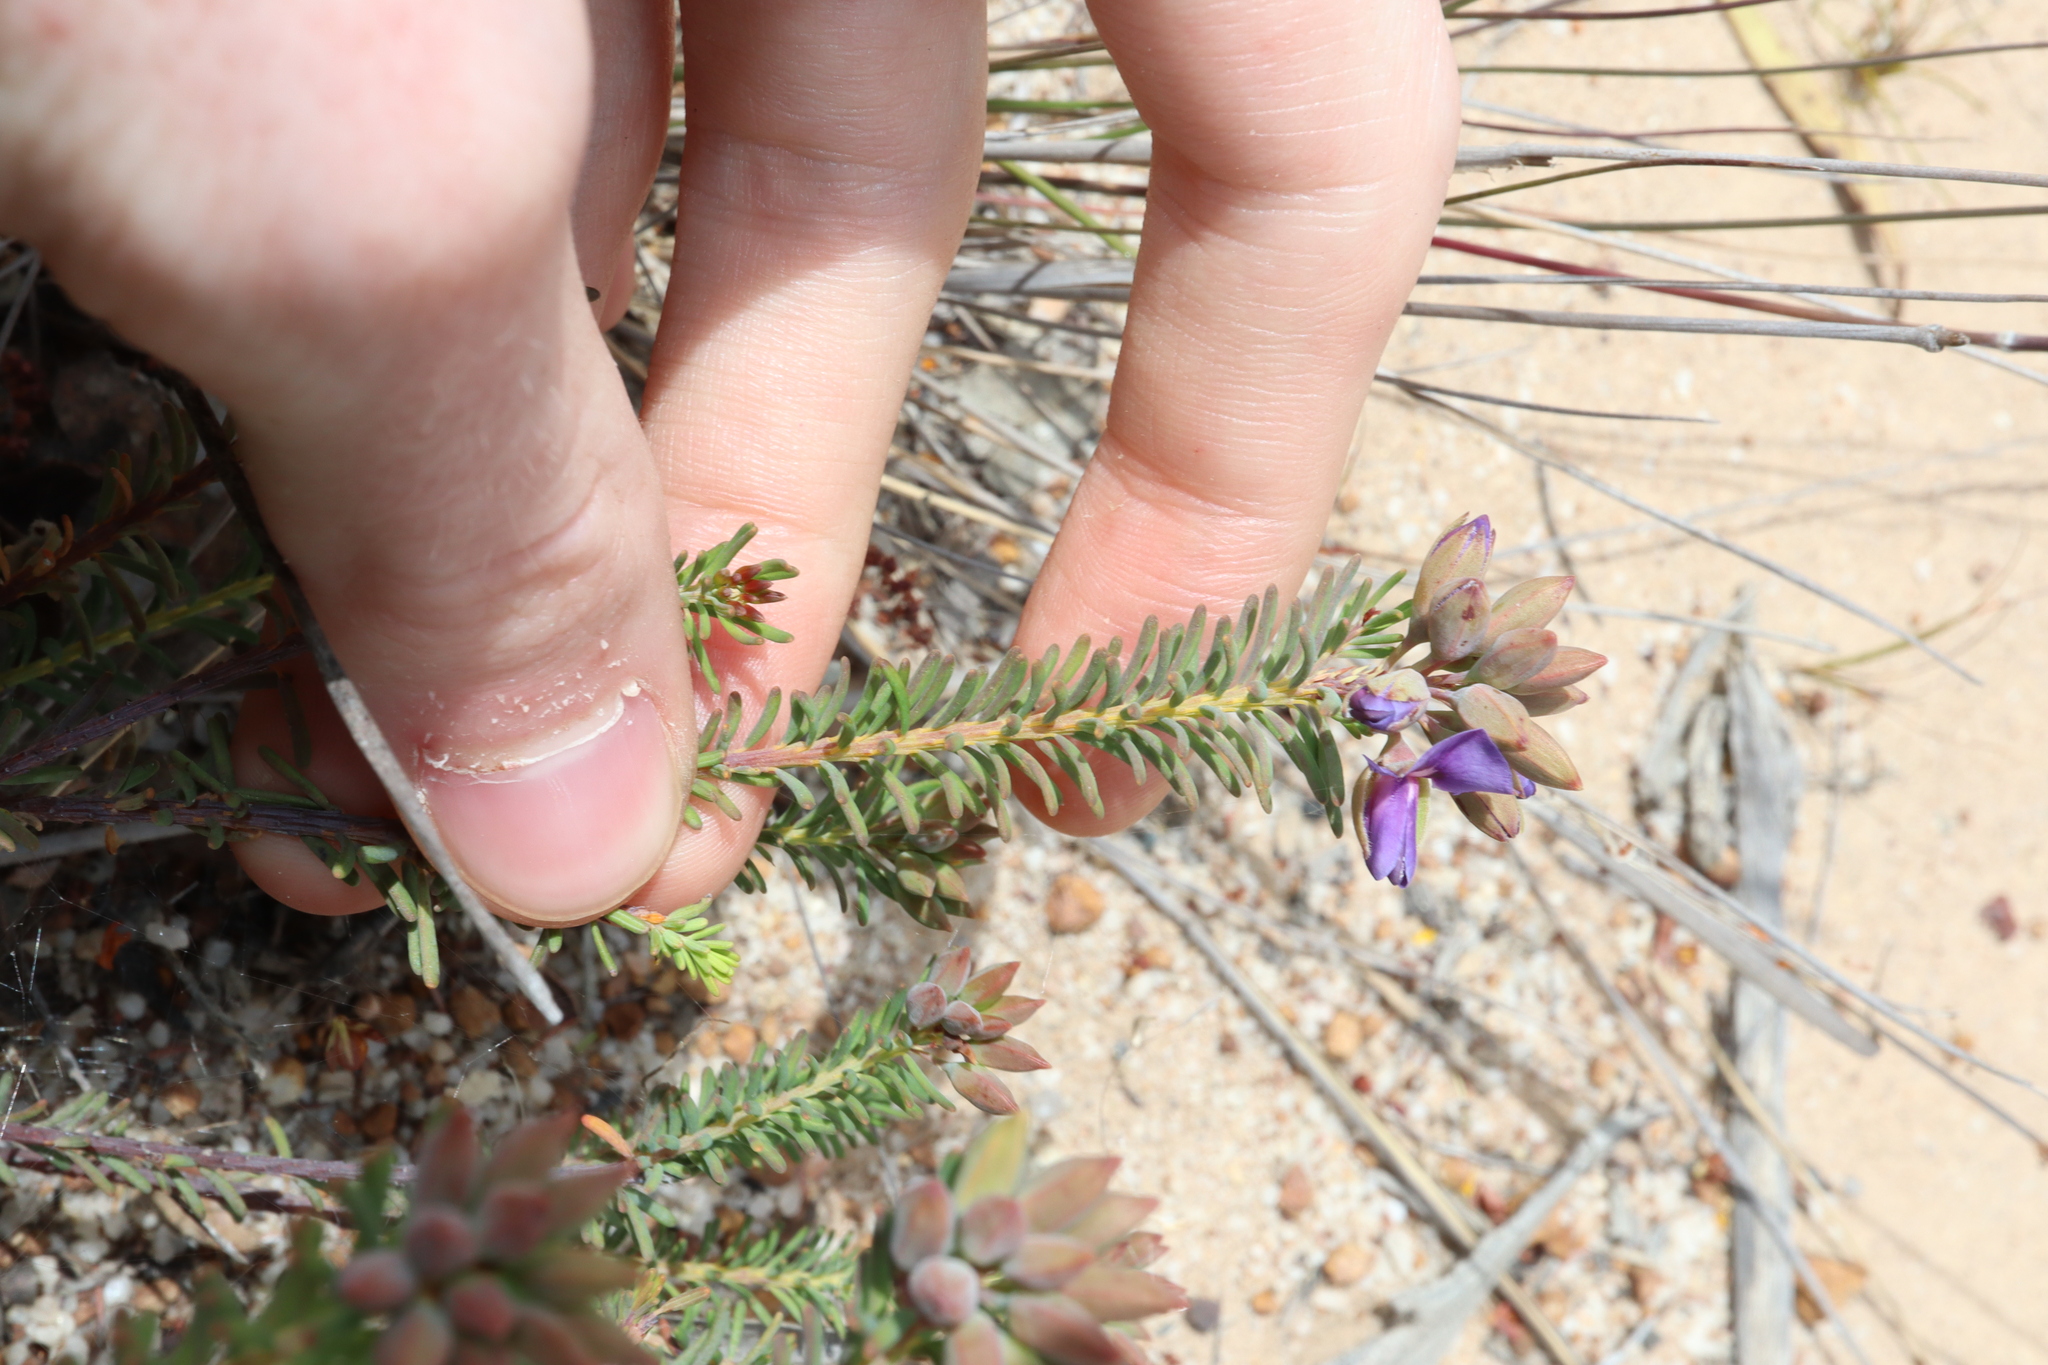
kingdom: Plantae
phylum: Tracheophyta
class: Magnoliopsida
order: Fabales
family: Fabaceae
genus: Gompholobium
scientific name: Gompholobium confertum
